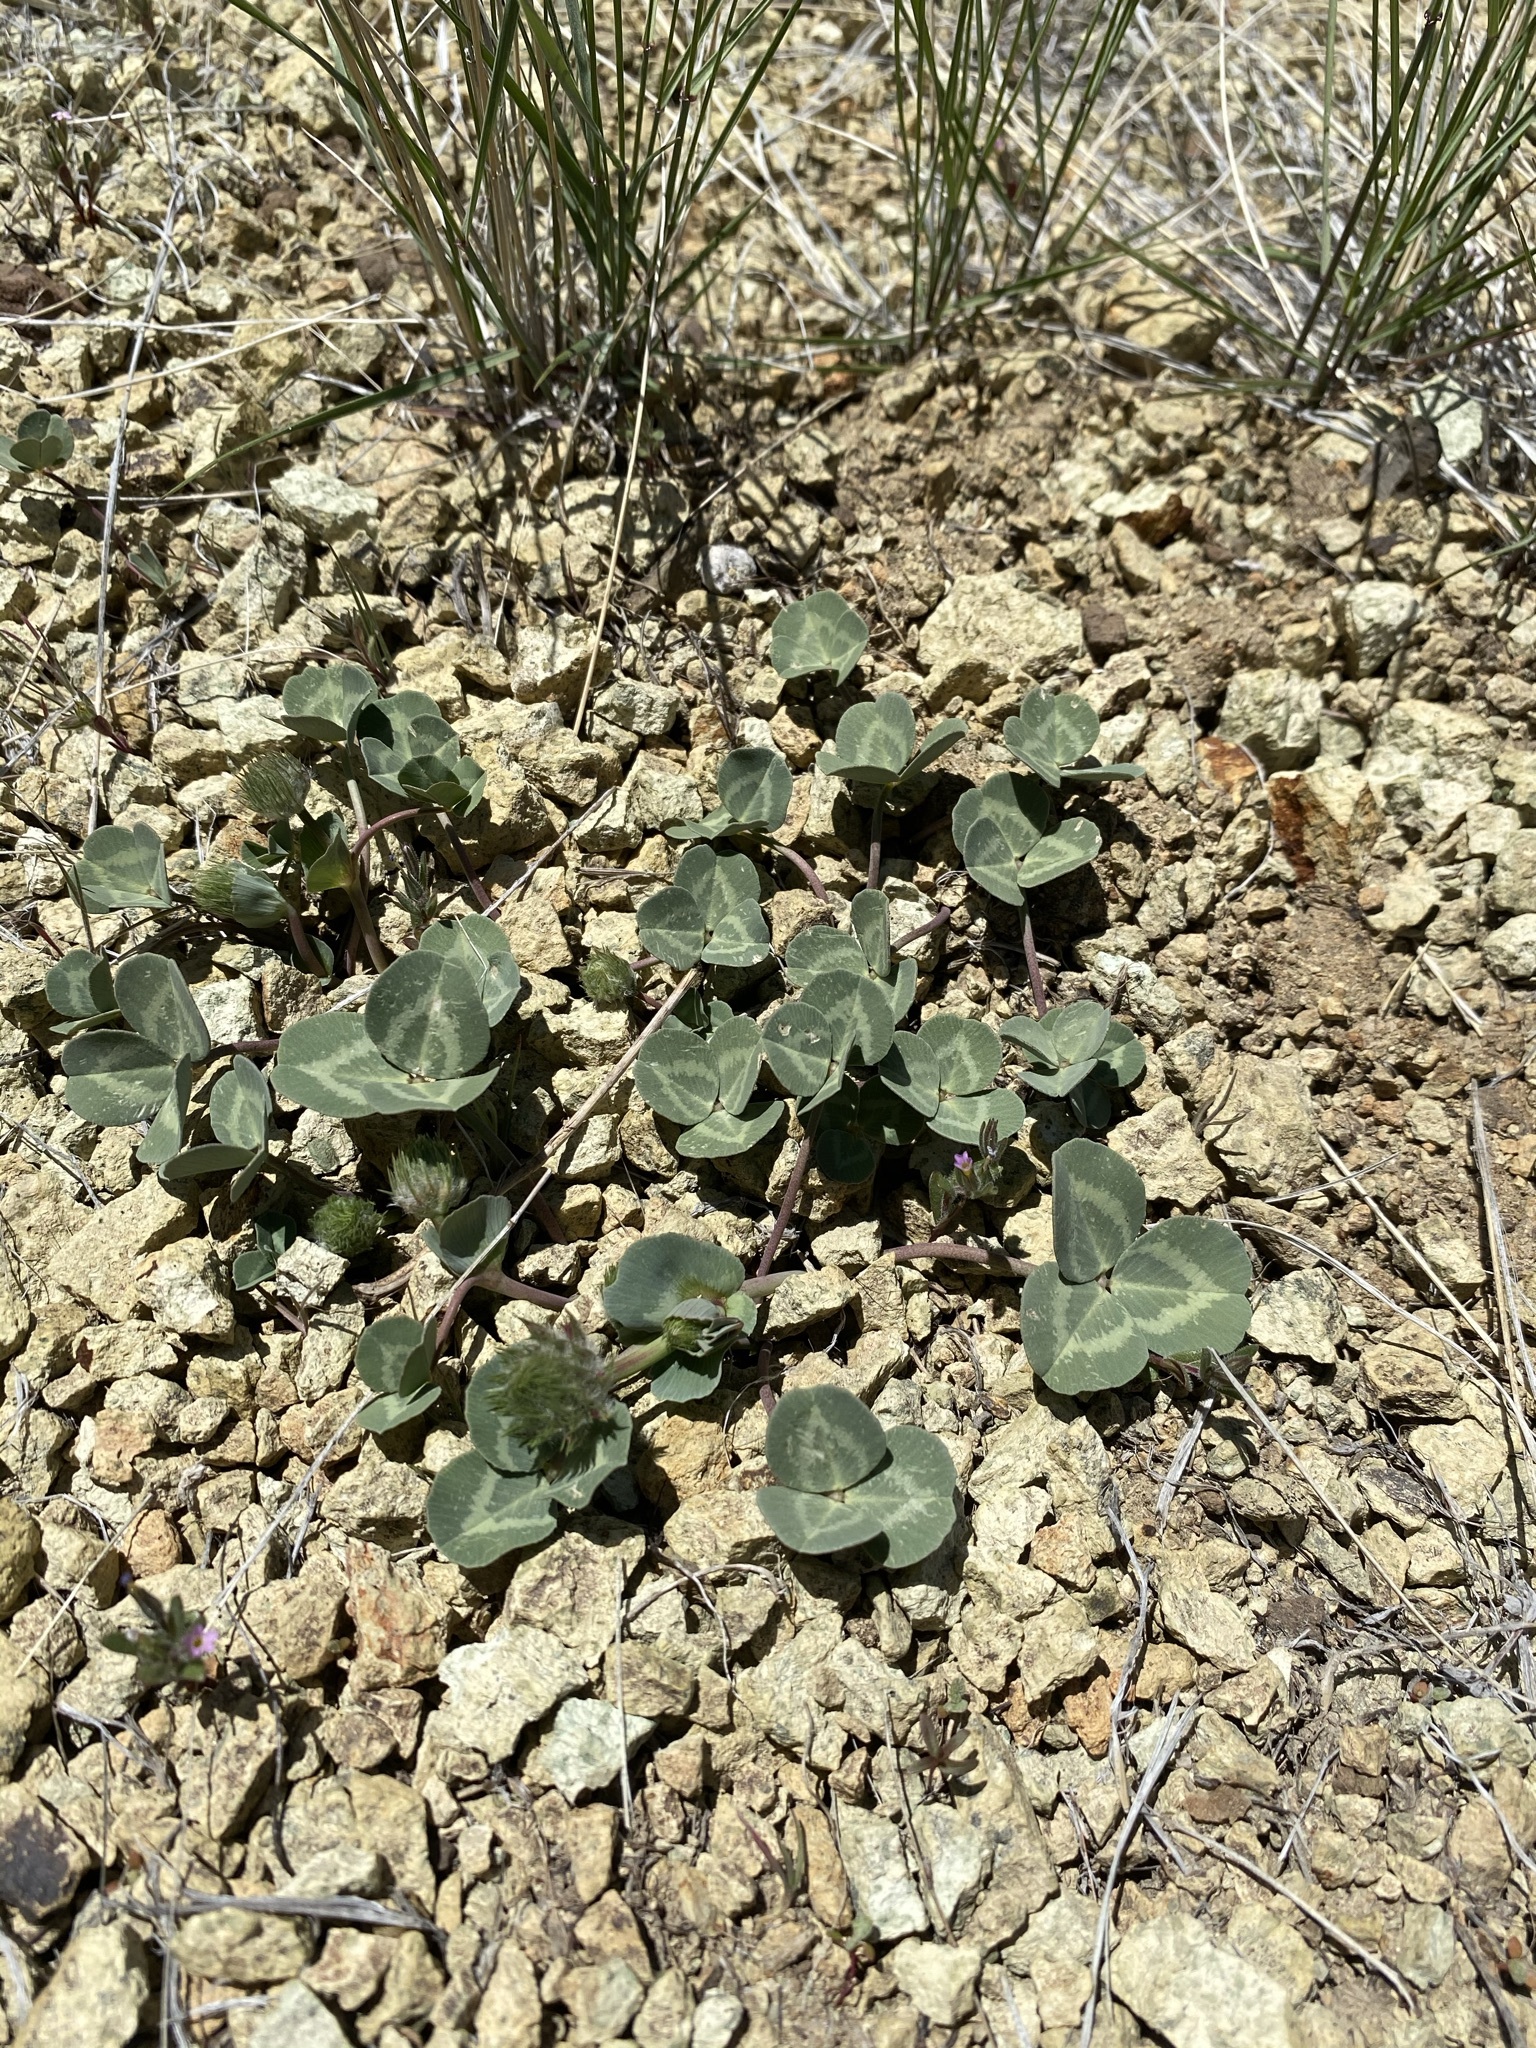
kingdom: Plantae
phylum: Tracheophyta
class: Magnoliopsida
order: Fabales
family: Fabaceae
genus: Trifolium
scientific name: Trifolium owyheense
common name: Owyhee clover
